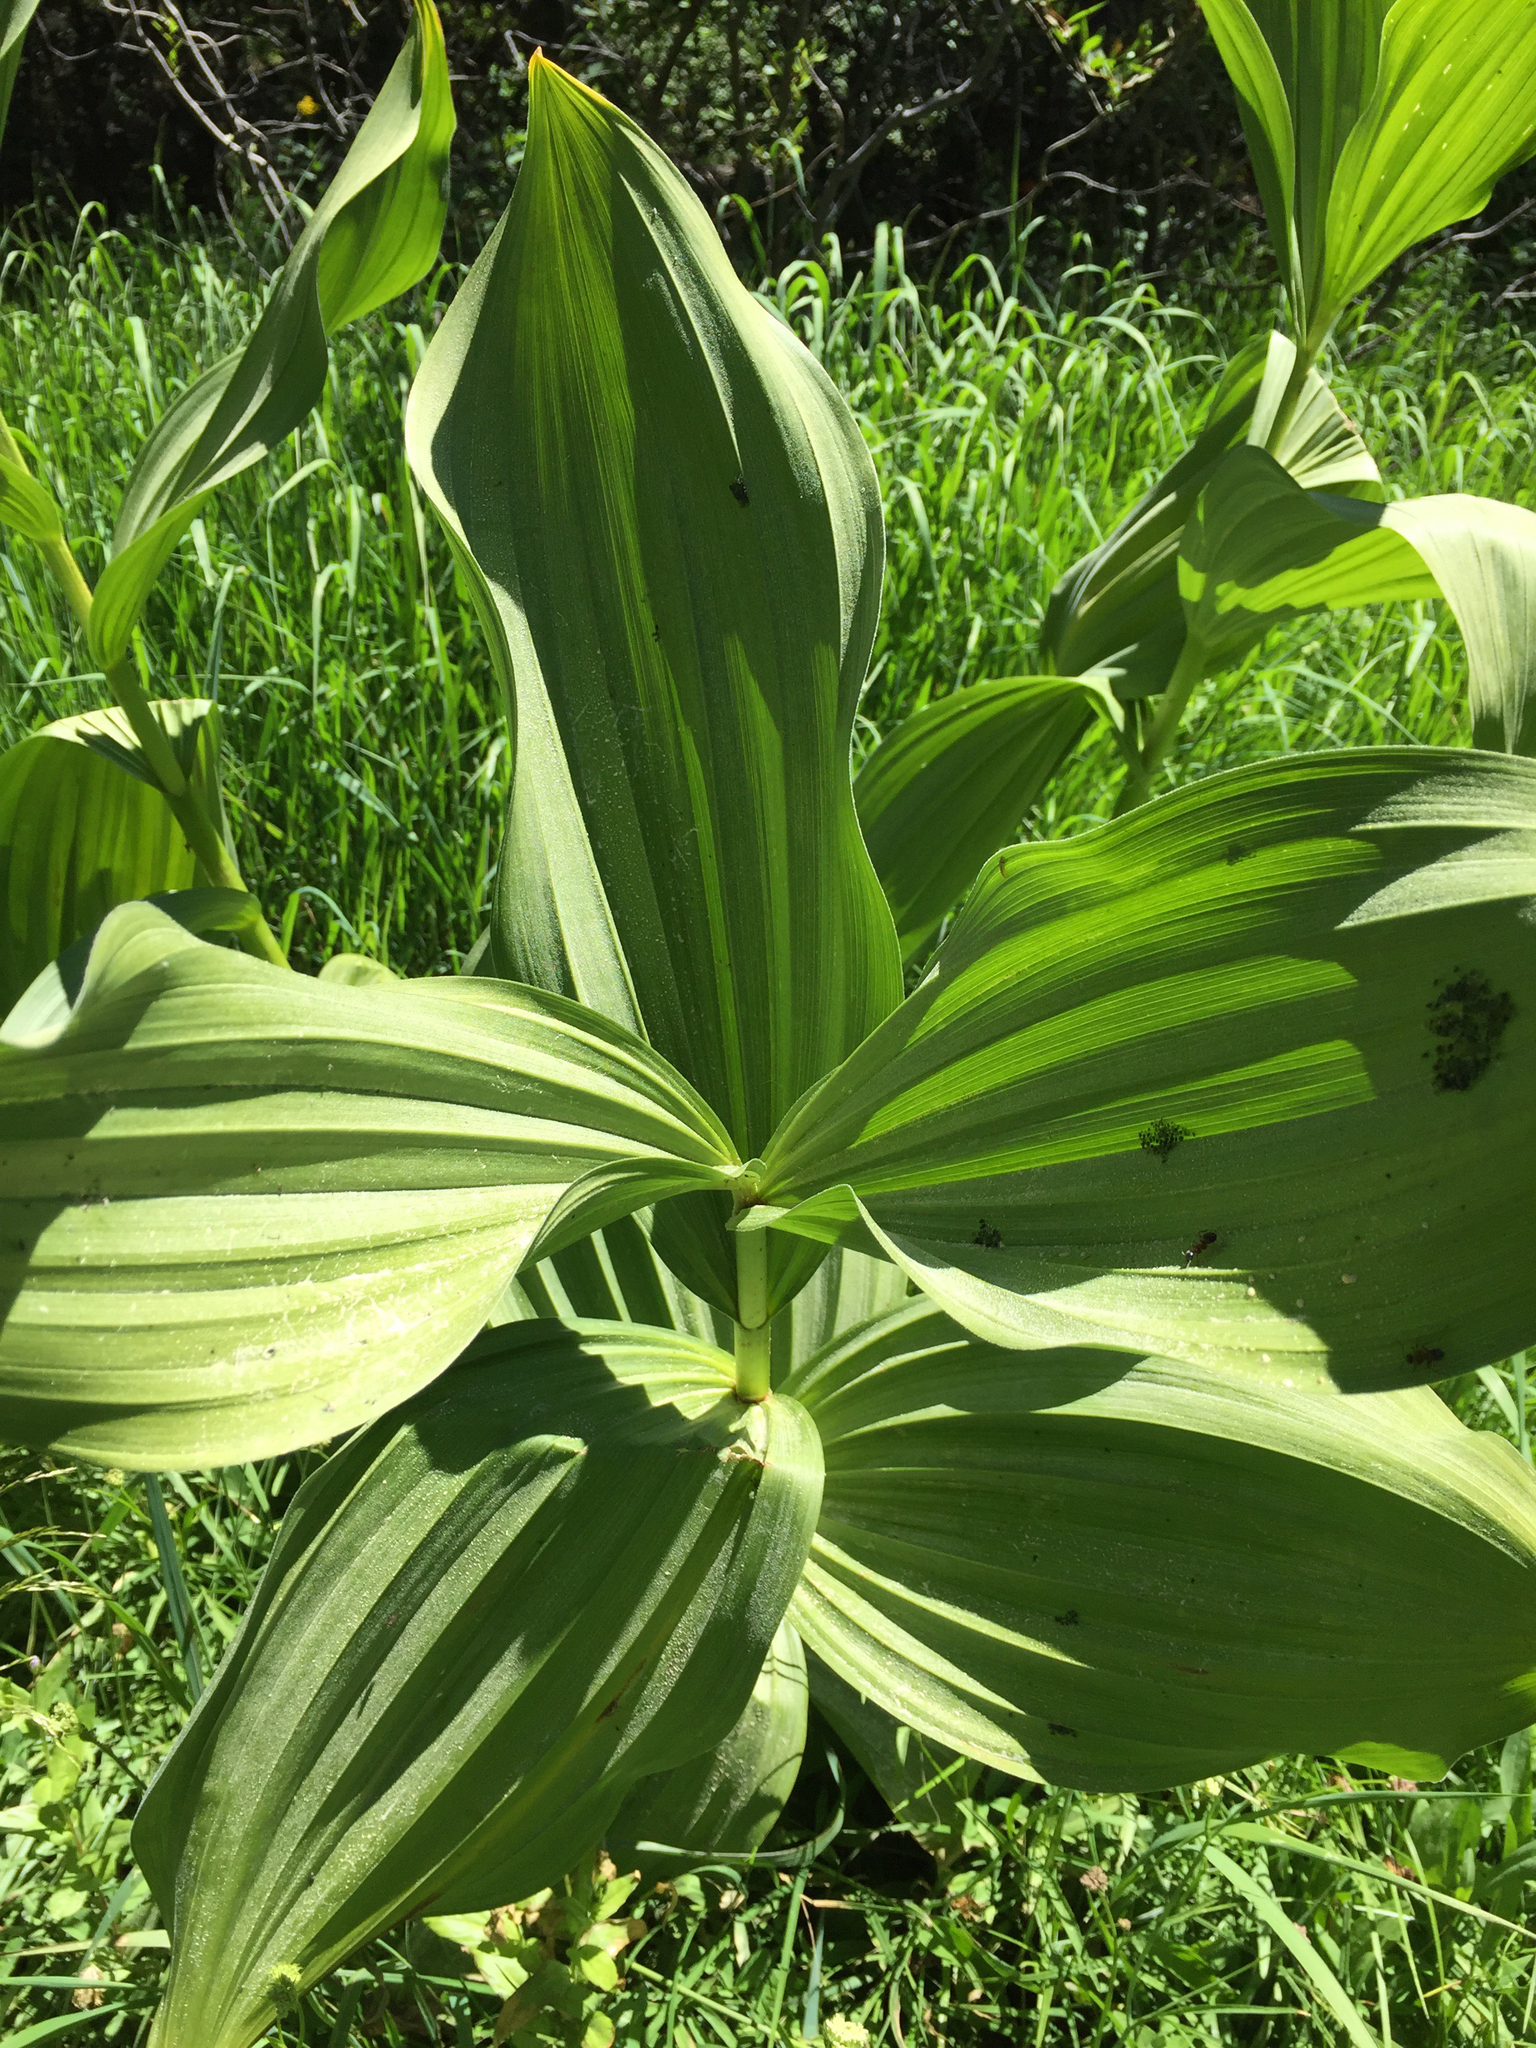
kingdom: Plantae
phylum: Tracheophyta
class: Liliopsida
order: Liliales
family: Melanthiaceae
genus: Veratrum
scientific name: Veratrum californicum
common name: California veratrum
